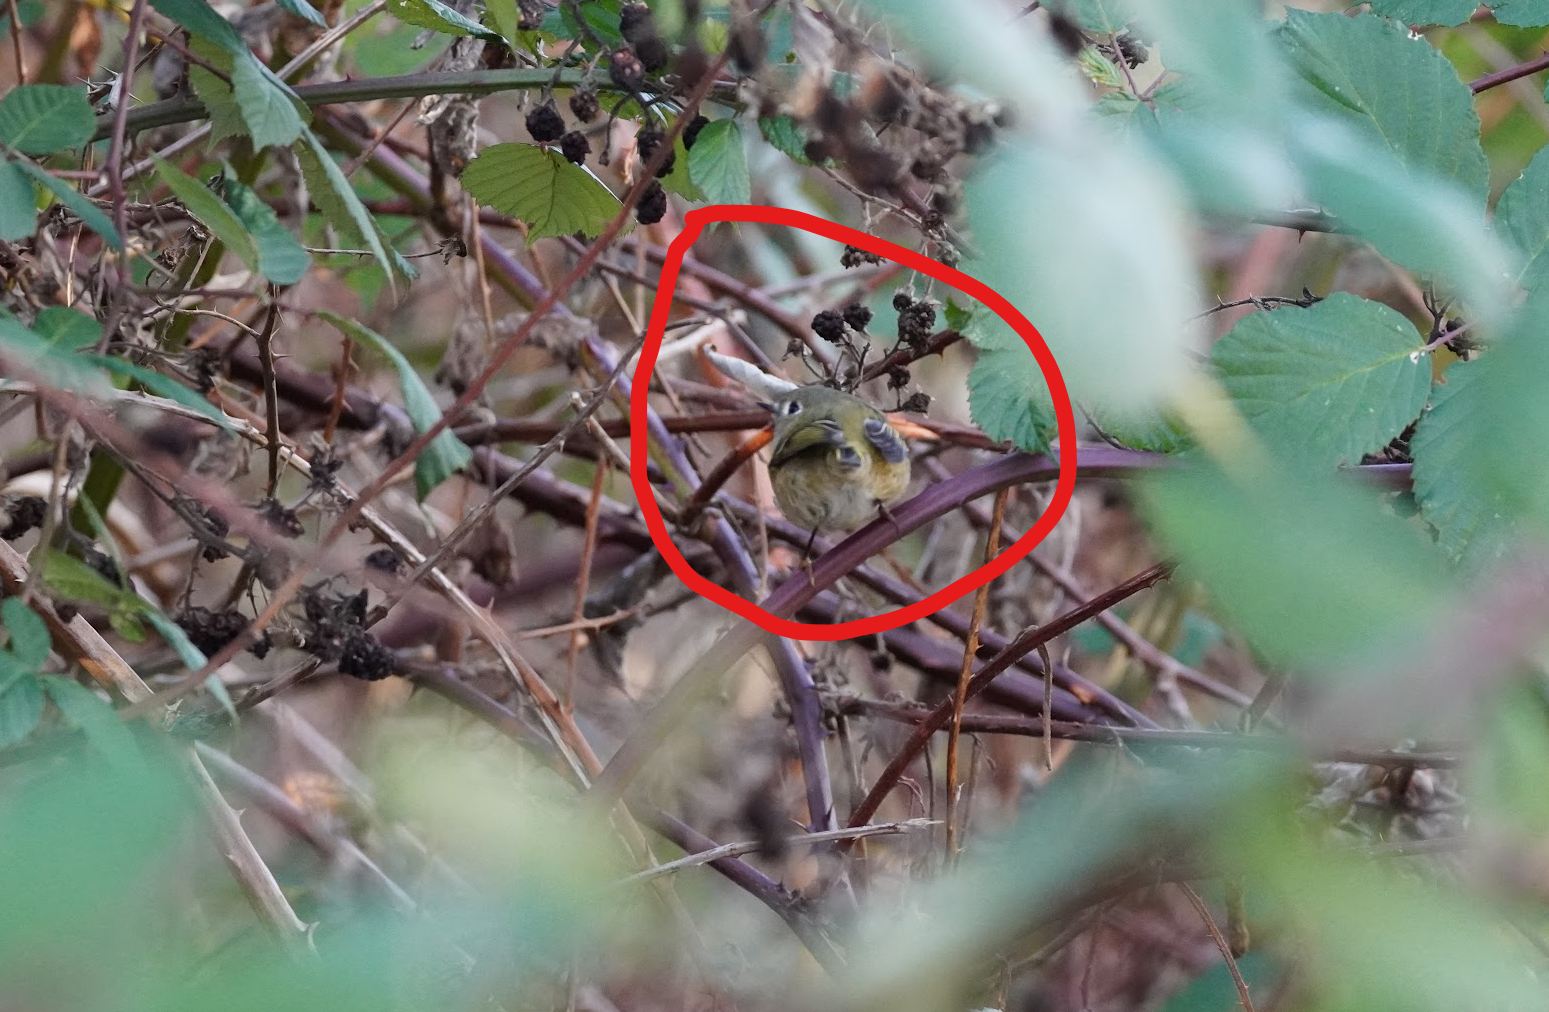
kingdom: Animalia
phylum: Chordata
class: Aves
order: Passeriformes
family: Regulidae
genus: Regulus
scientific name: Regulus calendula
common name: Ruby-crowned kinglet
